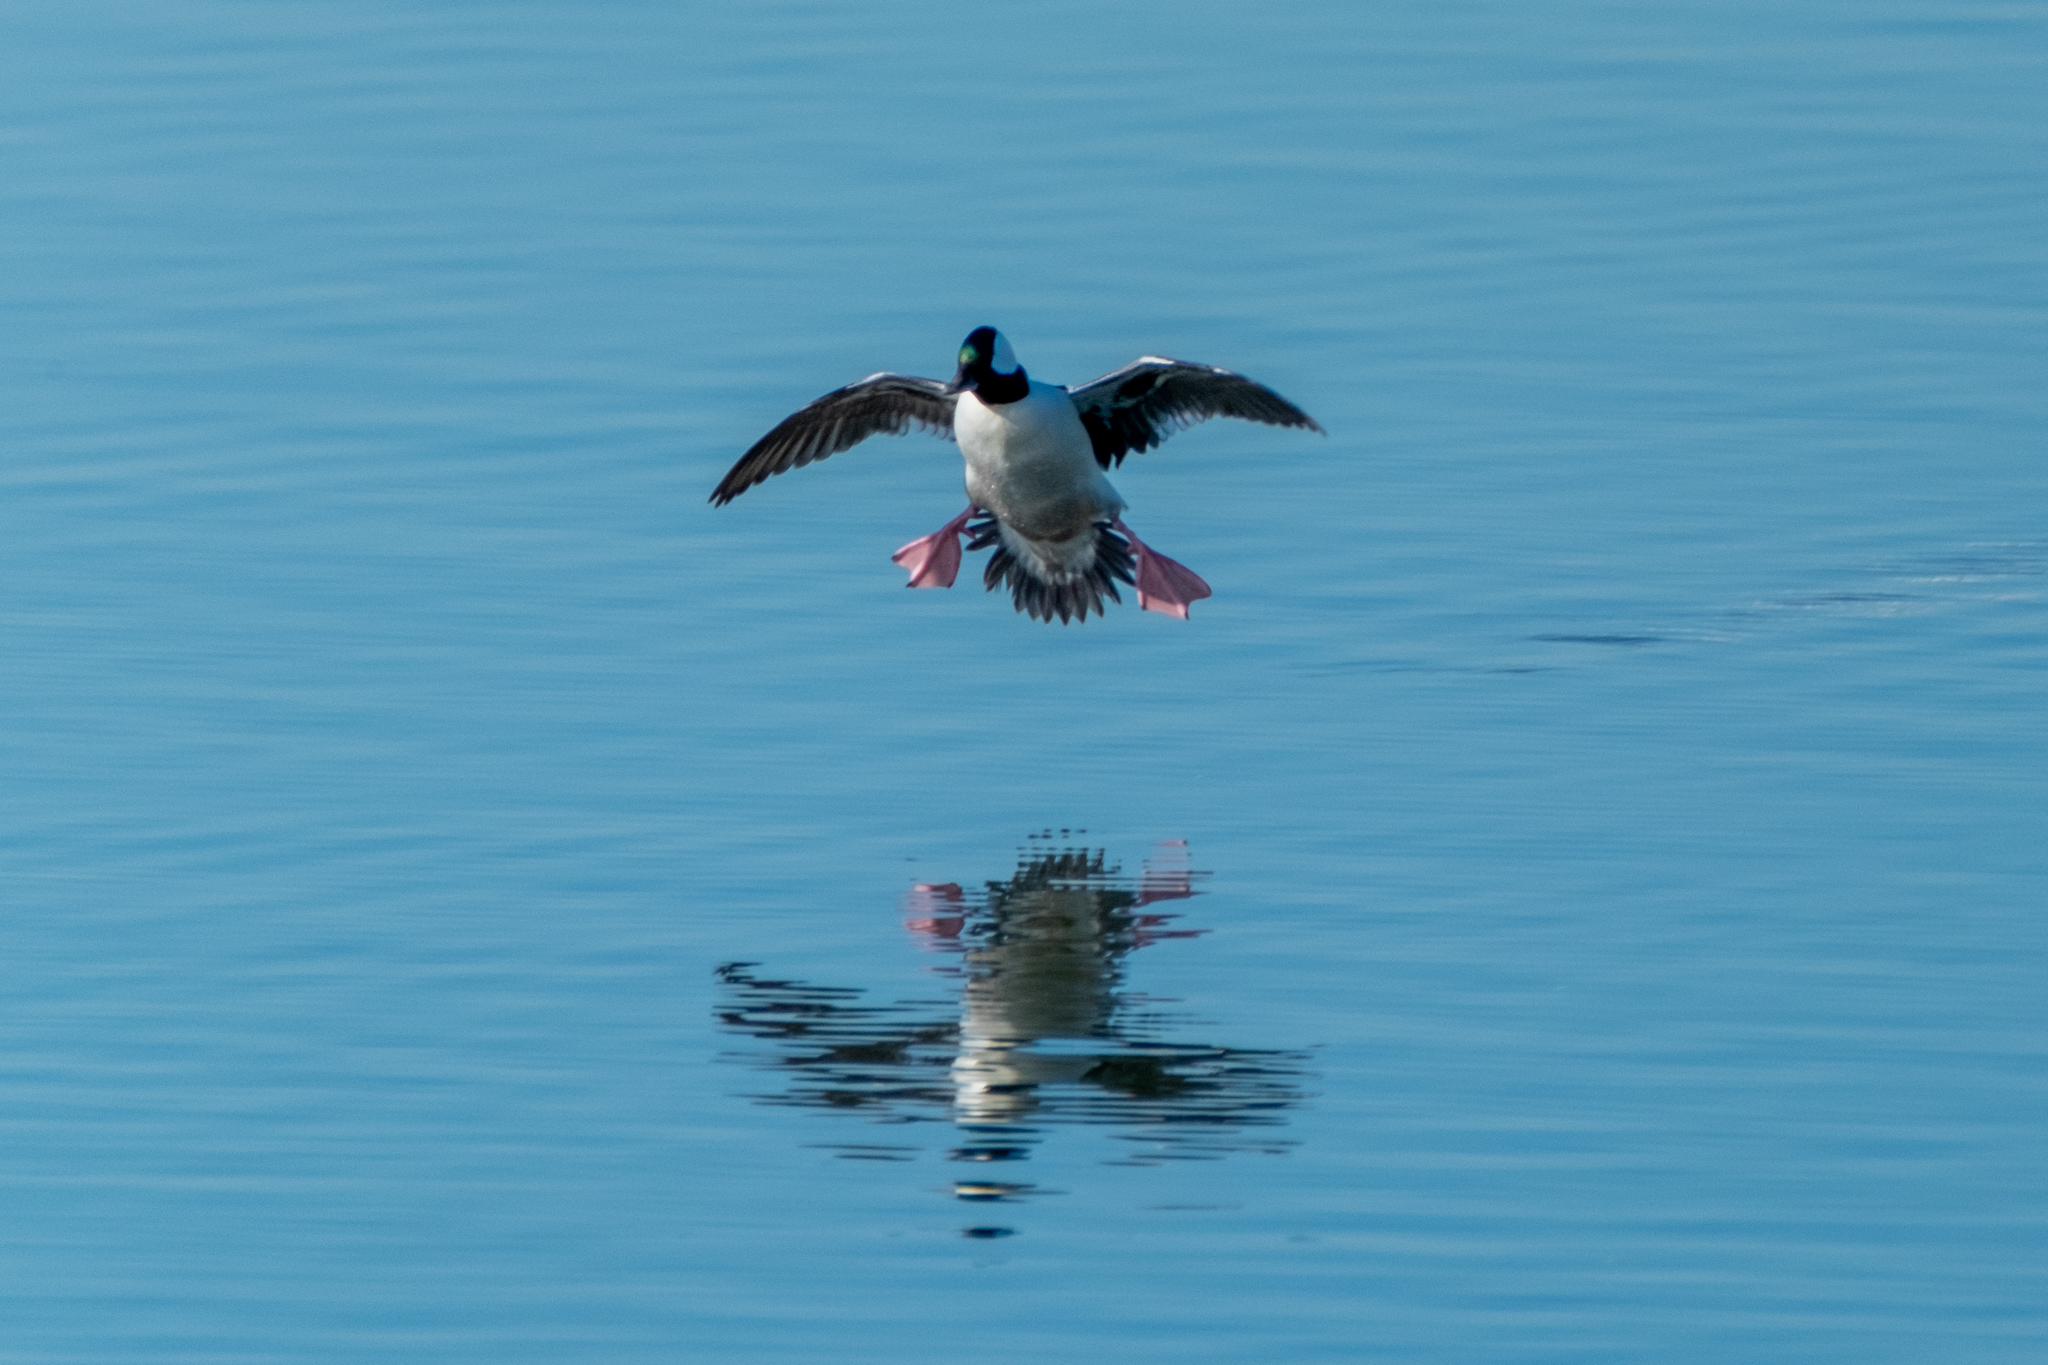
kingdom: Animalia
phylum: Chordata
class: Aves
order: Anseriformes
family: Anatidae
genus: Bucephala
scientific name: Bucephala albeola
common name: Bufflehead
